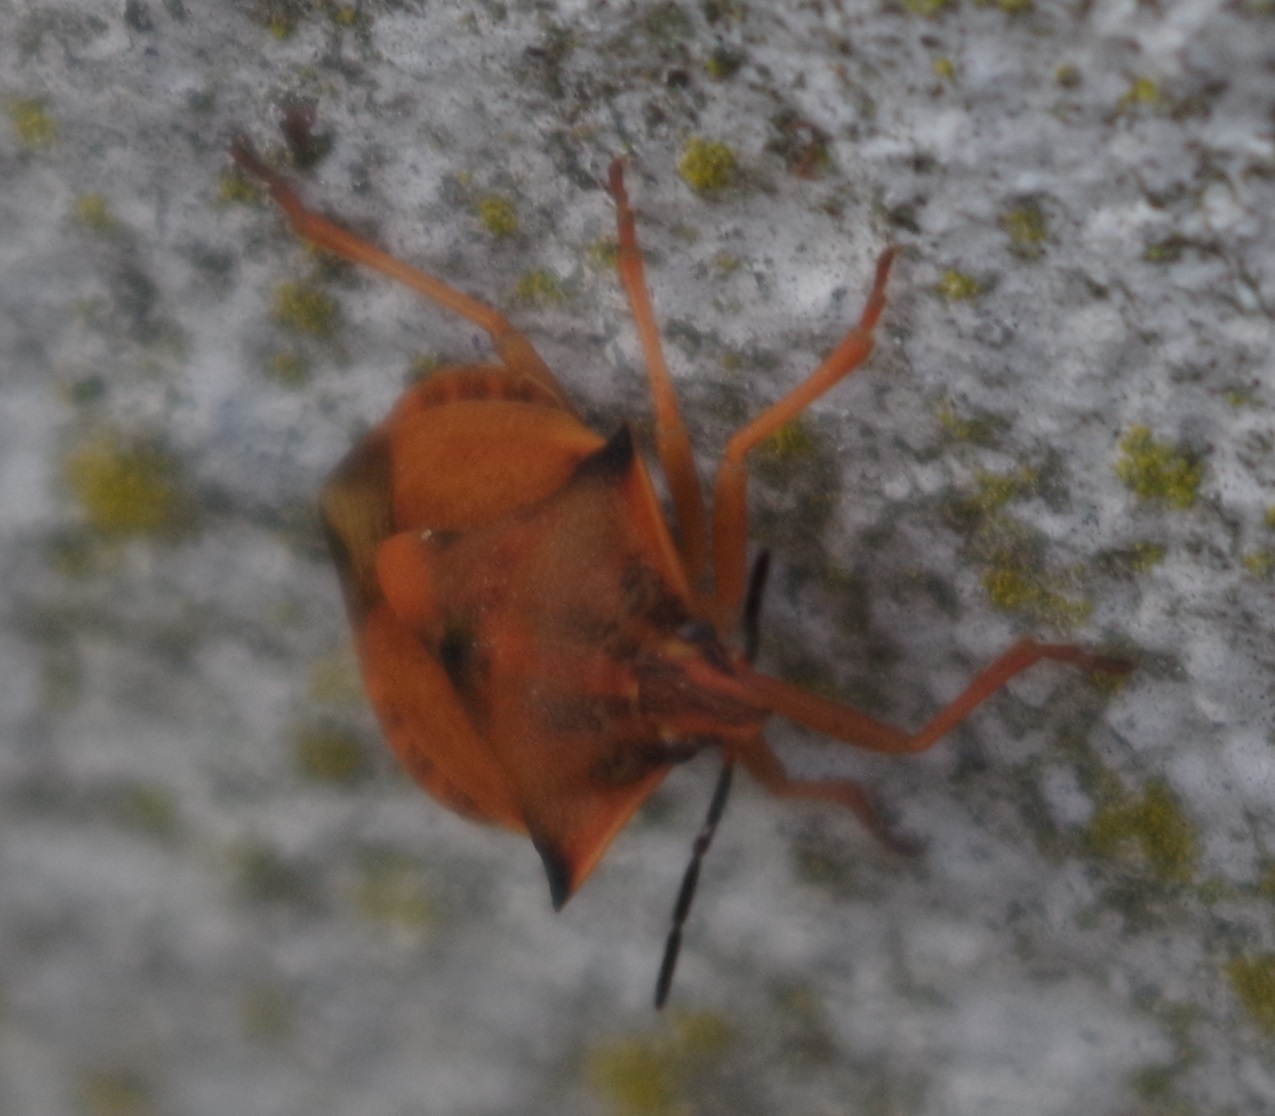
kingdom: Animalia
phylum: Arthropoda
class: Insecta
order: Hemiptera
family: Pentatomidae
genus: Carpocoris
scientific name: Carpocoris fuscispinus
